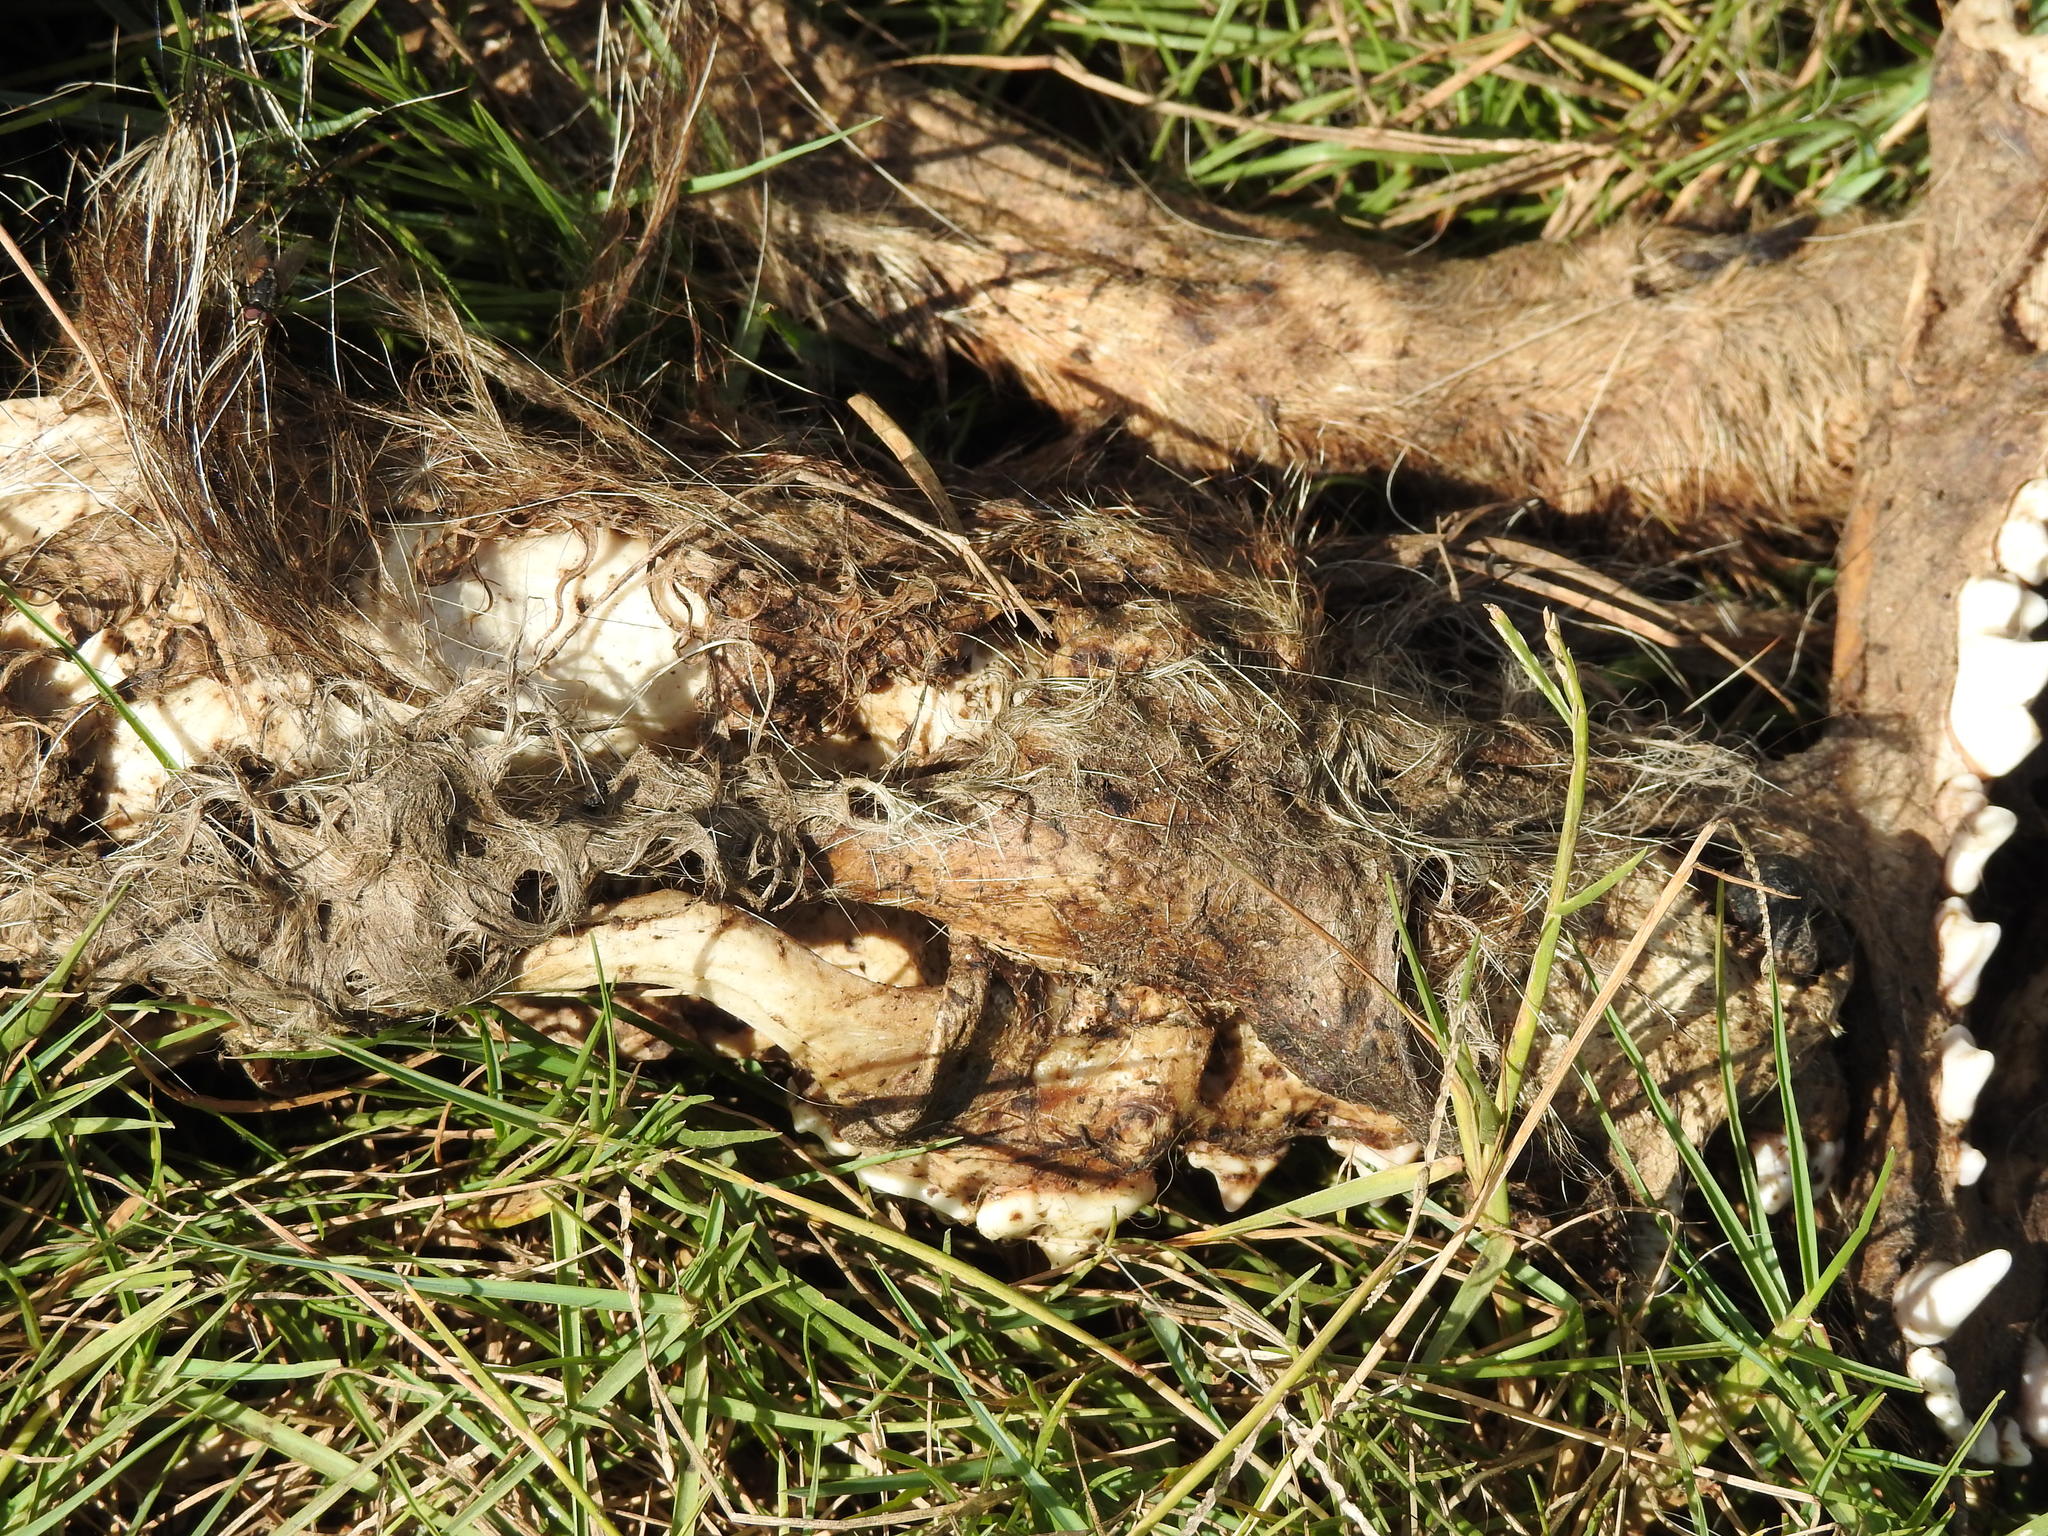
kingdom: Animalia
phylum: Chordata
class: Mammalia
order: Carnivora
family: Canidae
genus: Lycalopex
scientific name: Lycalopex gymnocercus
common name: Pampas fox
